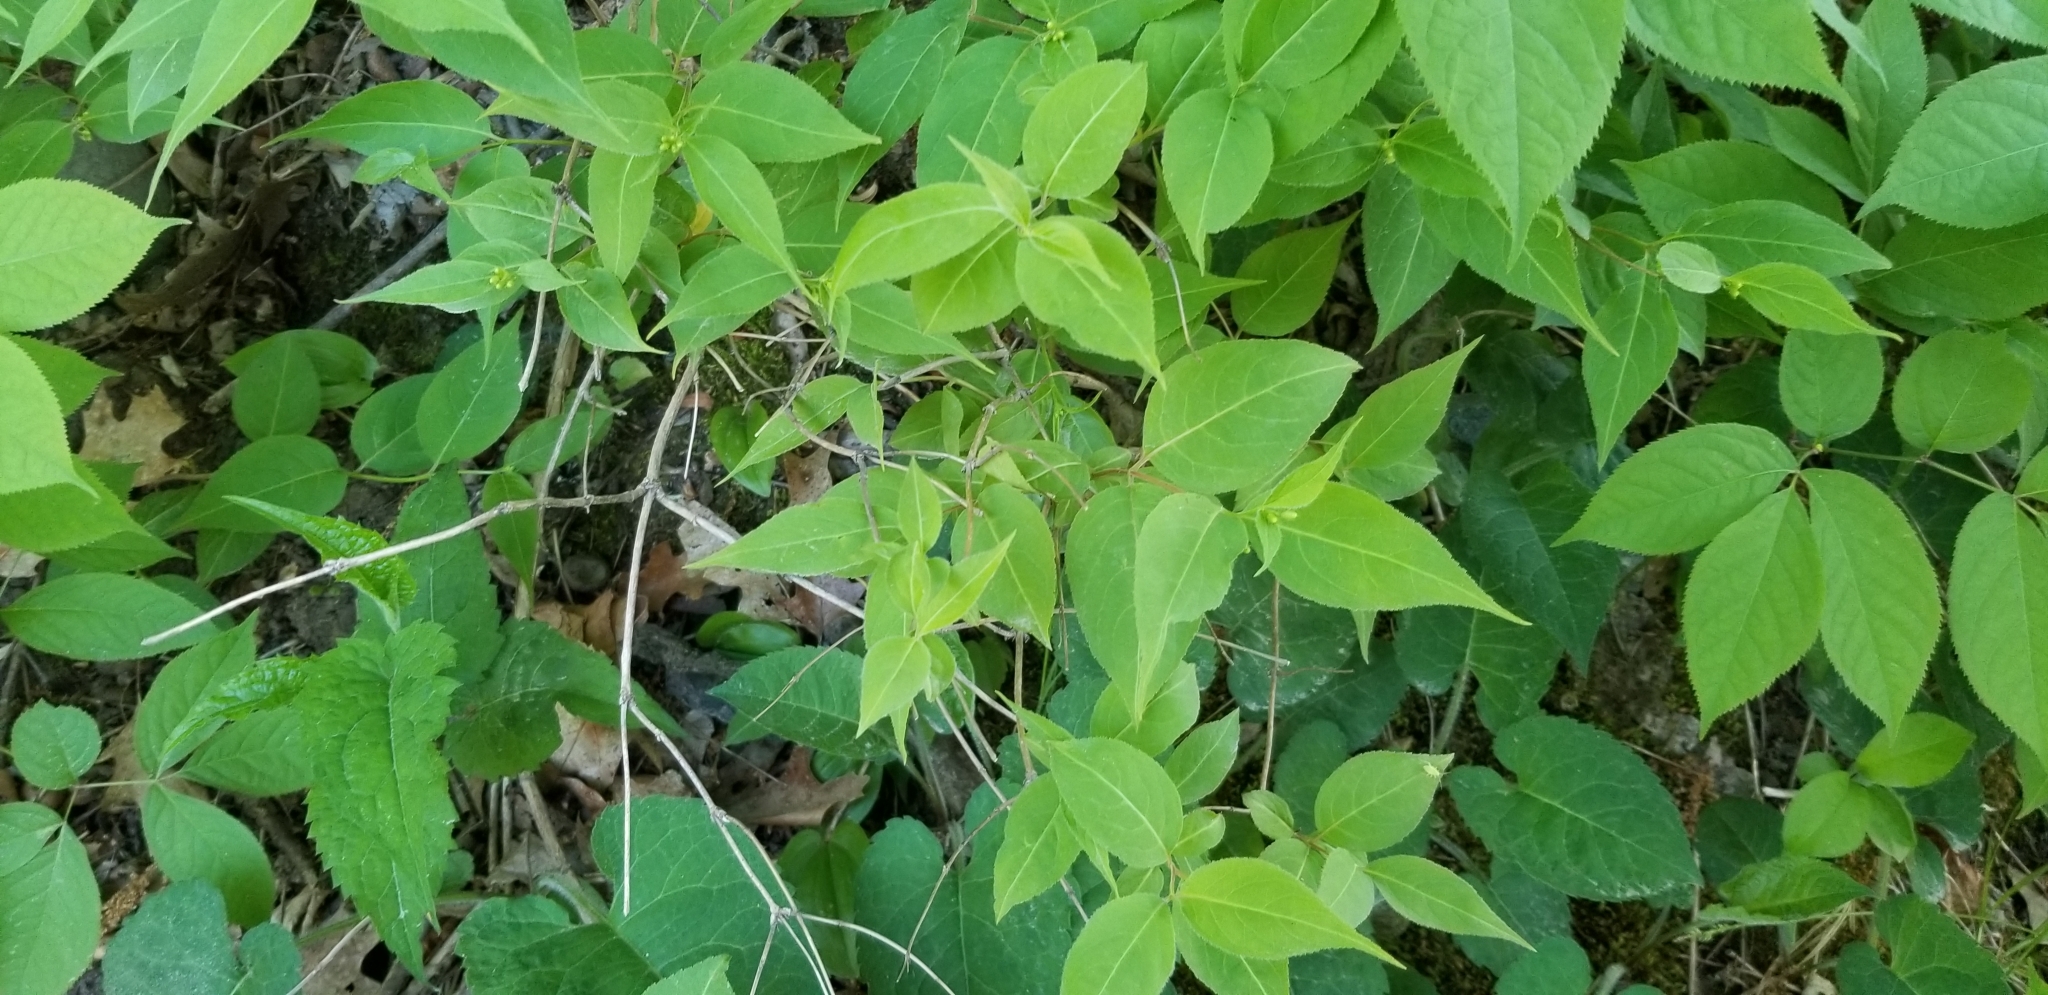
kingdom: Plantae
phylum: Tracheophyta
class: Magnoliopsida
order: Dipsacales
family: Caprifoliaceae
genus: Diervilla
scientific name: Diervilla lonicera
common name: Bush-honeysuckle
